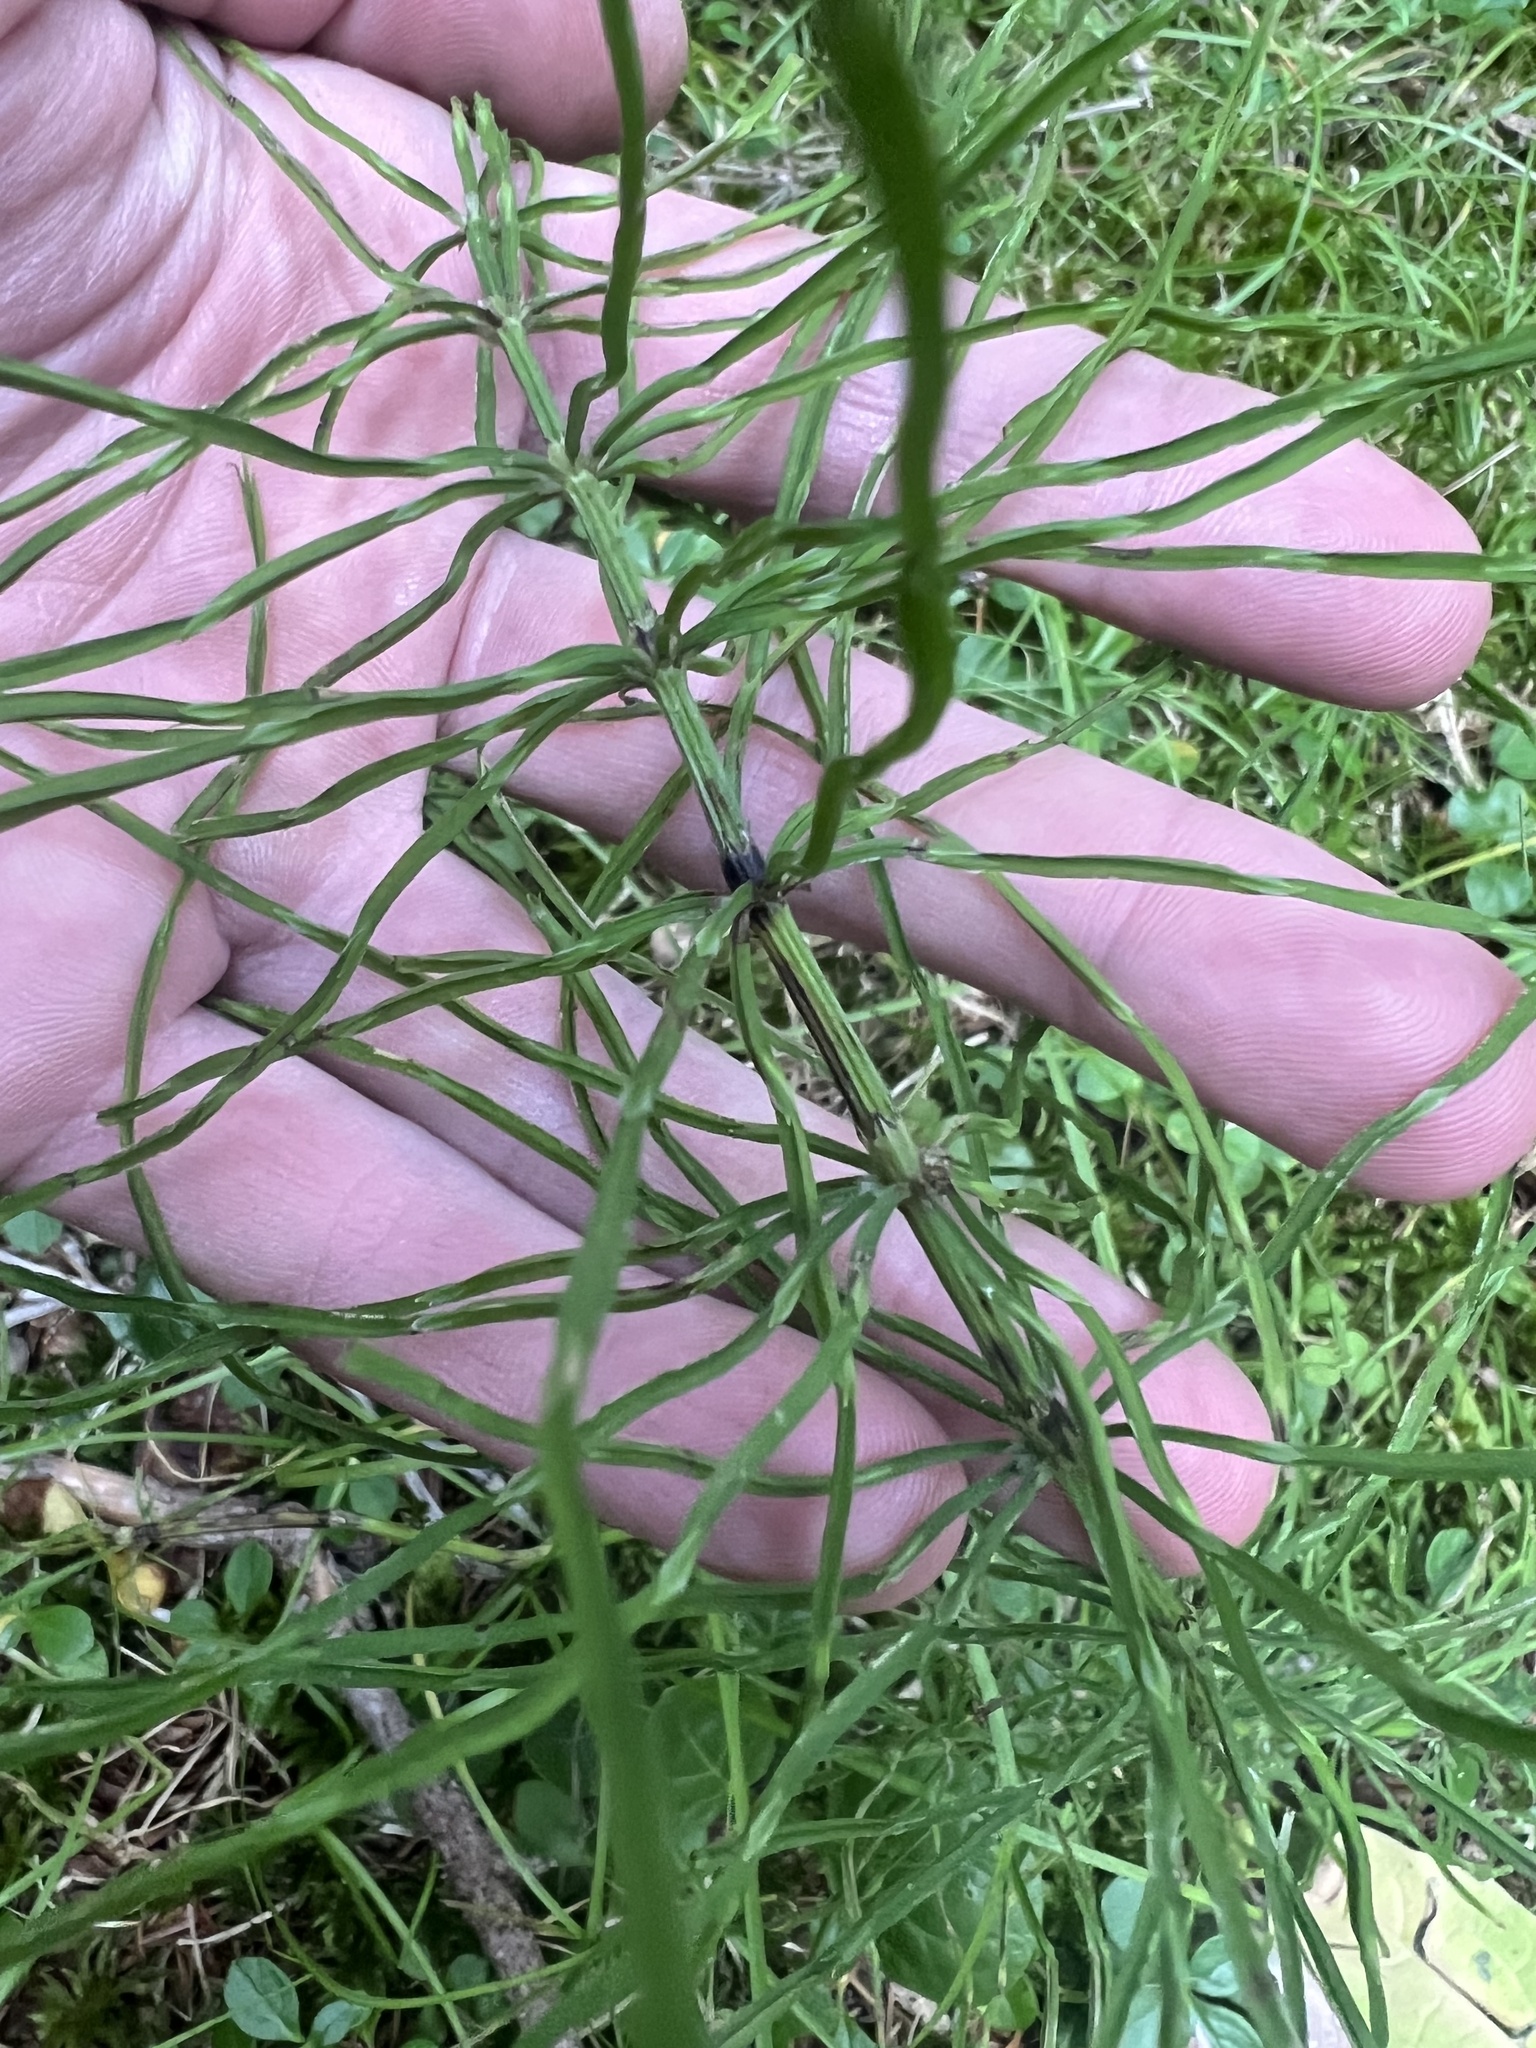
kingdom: Plantae
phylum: Tracheophyta
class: Polypodiopsida
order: Equisetales
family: Equisetaceae
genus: Equisetum
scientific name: Equisetum arvense
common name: Field horsetail
